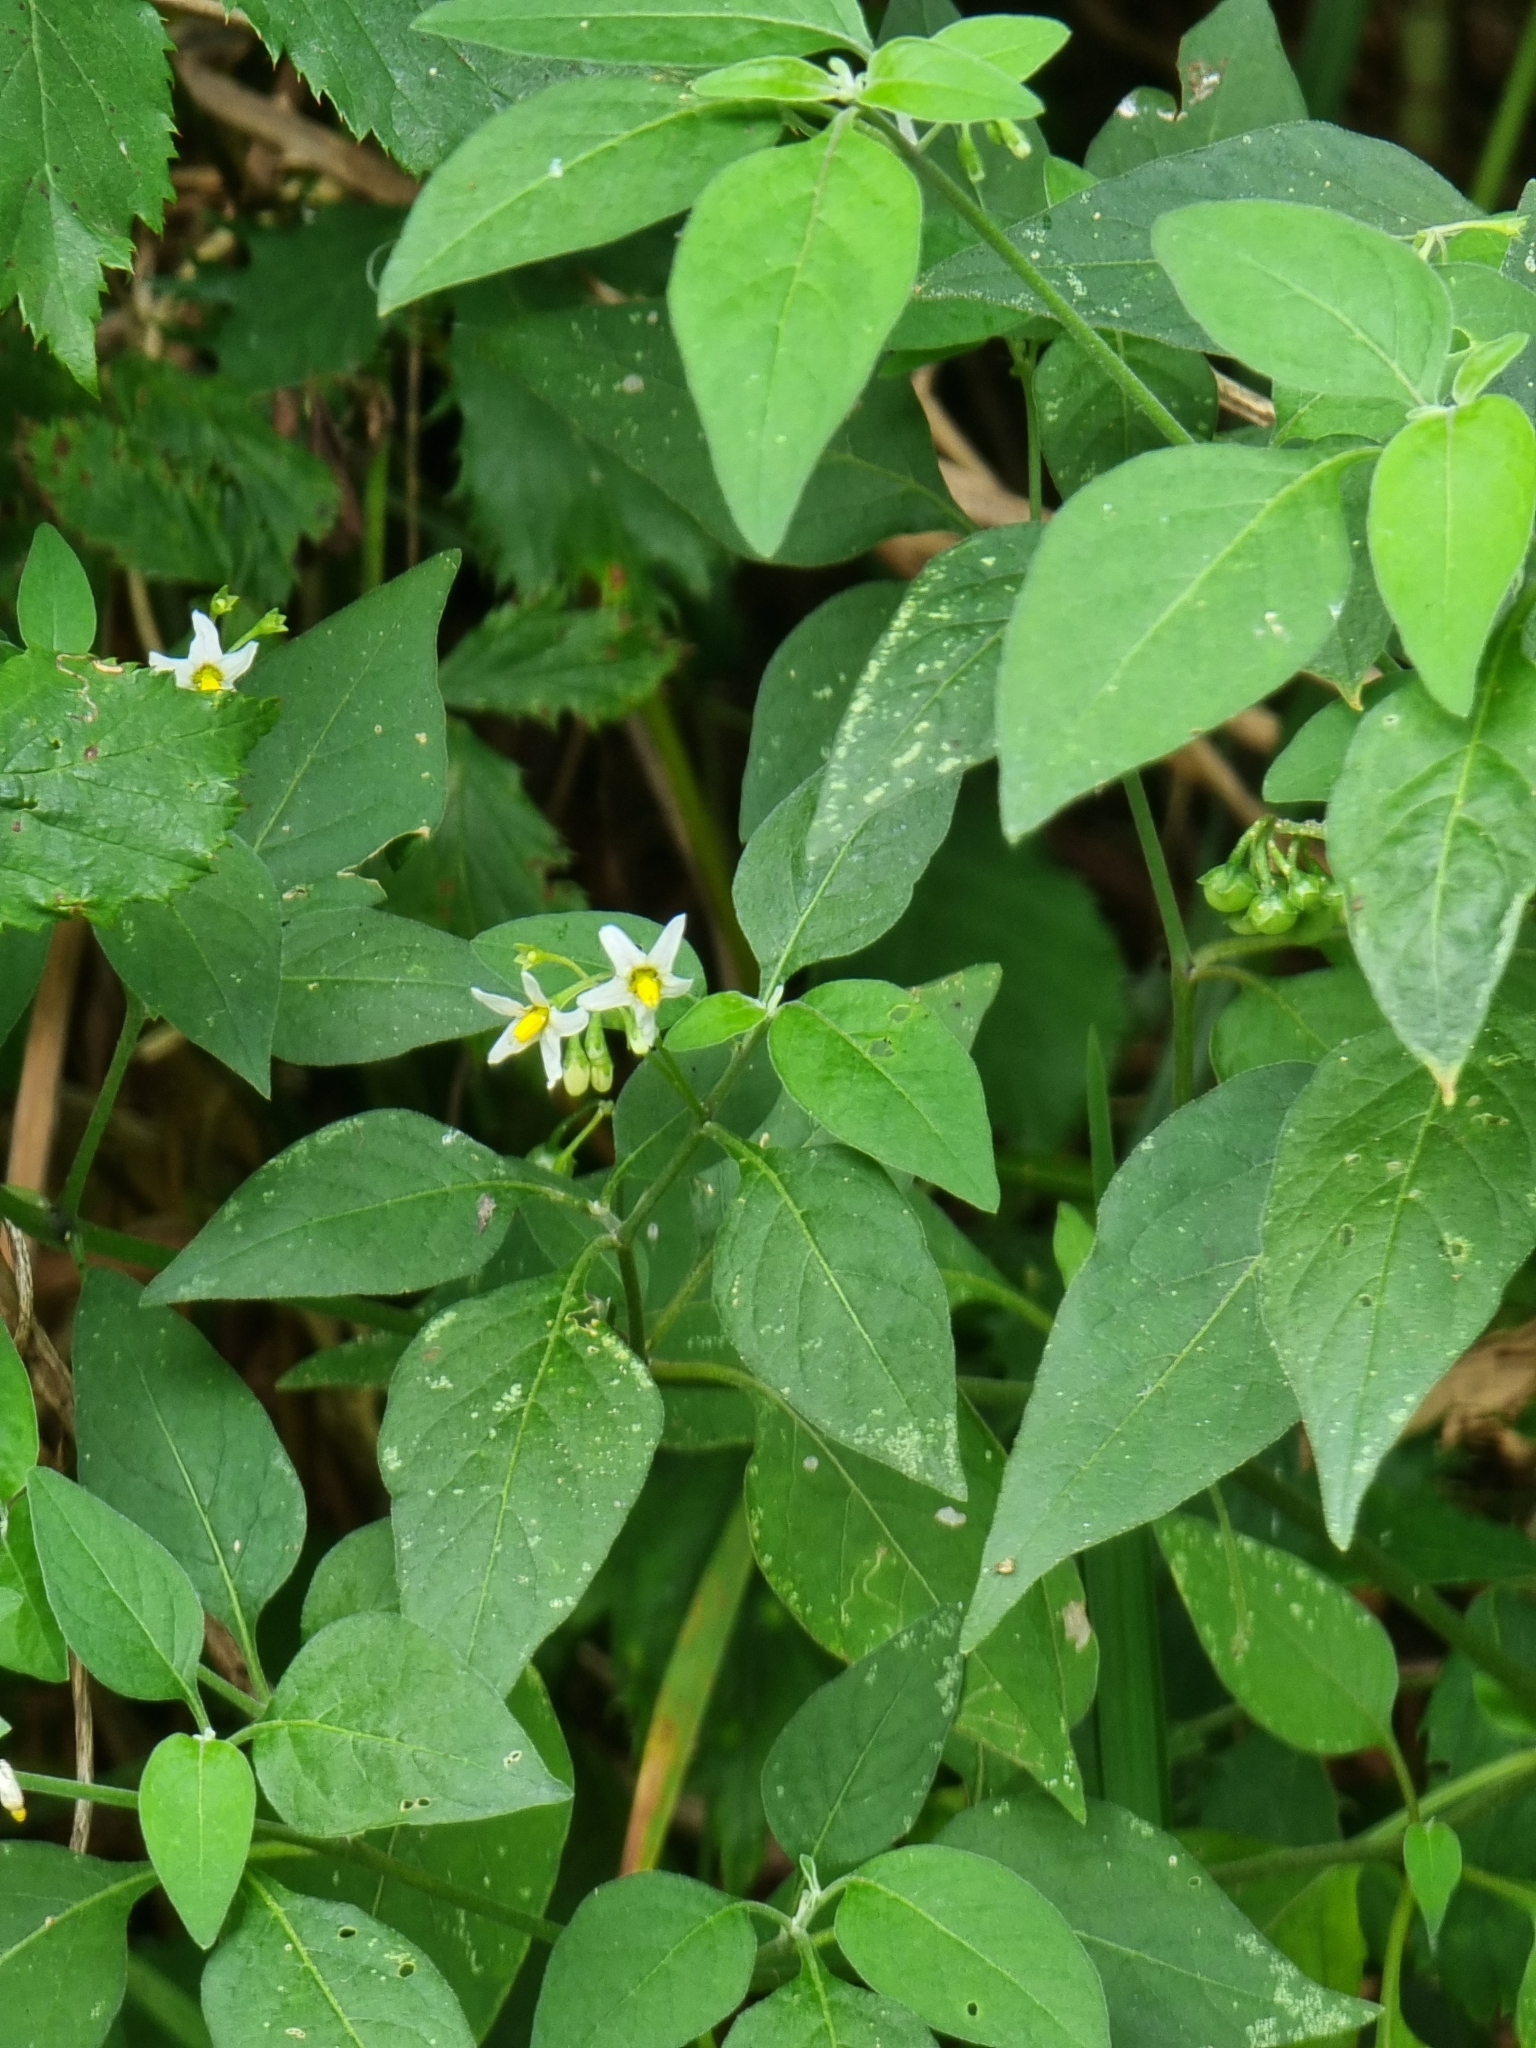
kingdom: Plantae
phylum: Tracheophyta
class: Magnoliopsida
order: Solanales
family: Solanaceae
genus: Solanum
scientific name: Solanum chenopodioides
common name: Tall nightshade
